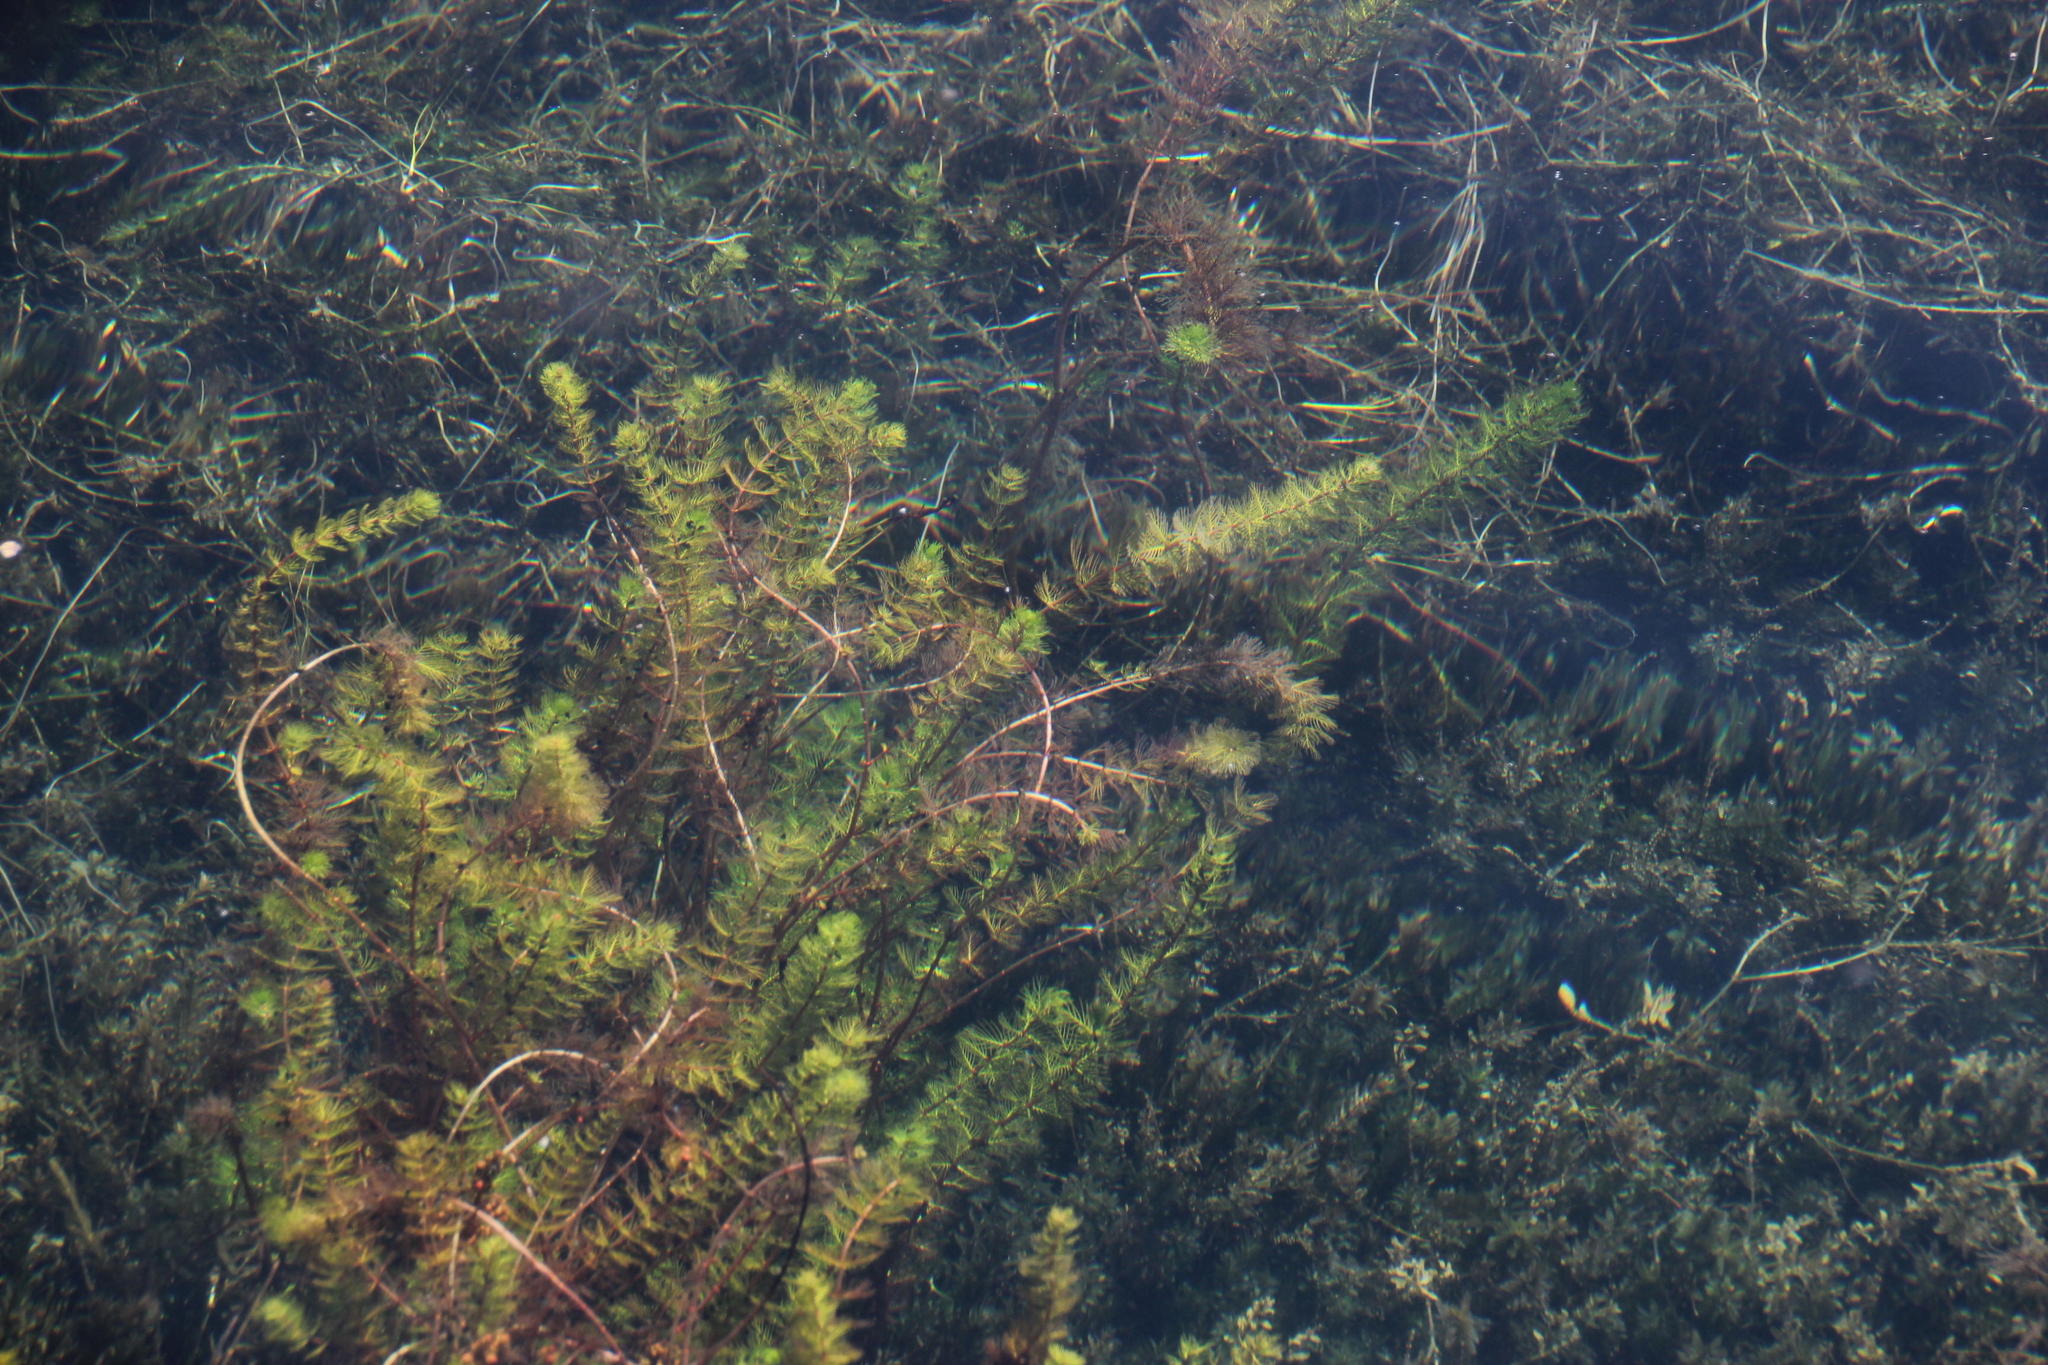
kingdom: Plantae
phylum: Tracheophyta
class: Magnoliopsida
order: Saxifragales
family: Haloragaceae
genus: Myriophyllum
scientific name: Myriophyllum quitense
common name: Andean water milfoil
